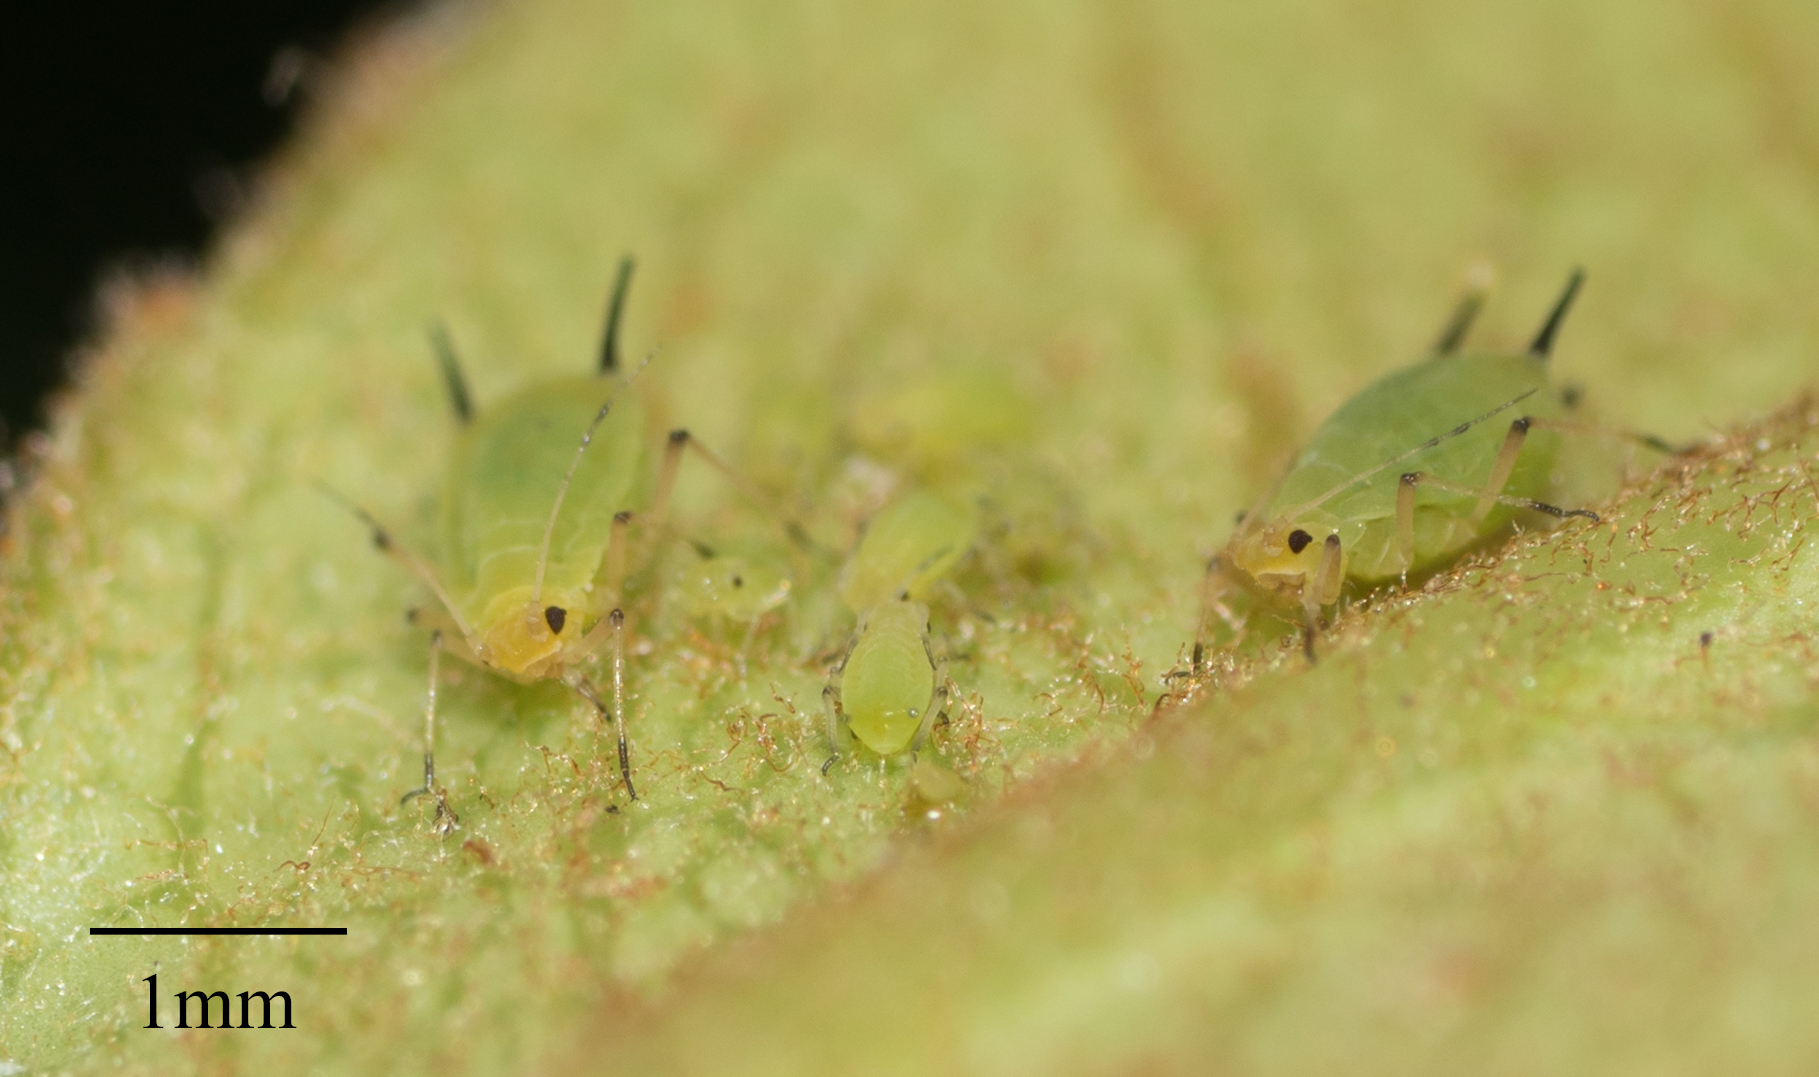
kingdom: Animalia
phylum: Arthropoda
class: Insecta
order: Hemiptera
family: Aphididae
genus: Aphis
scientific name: Aphis spiraecola
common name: Spirea aphid
